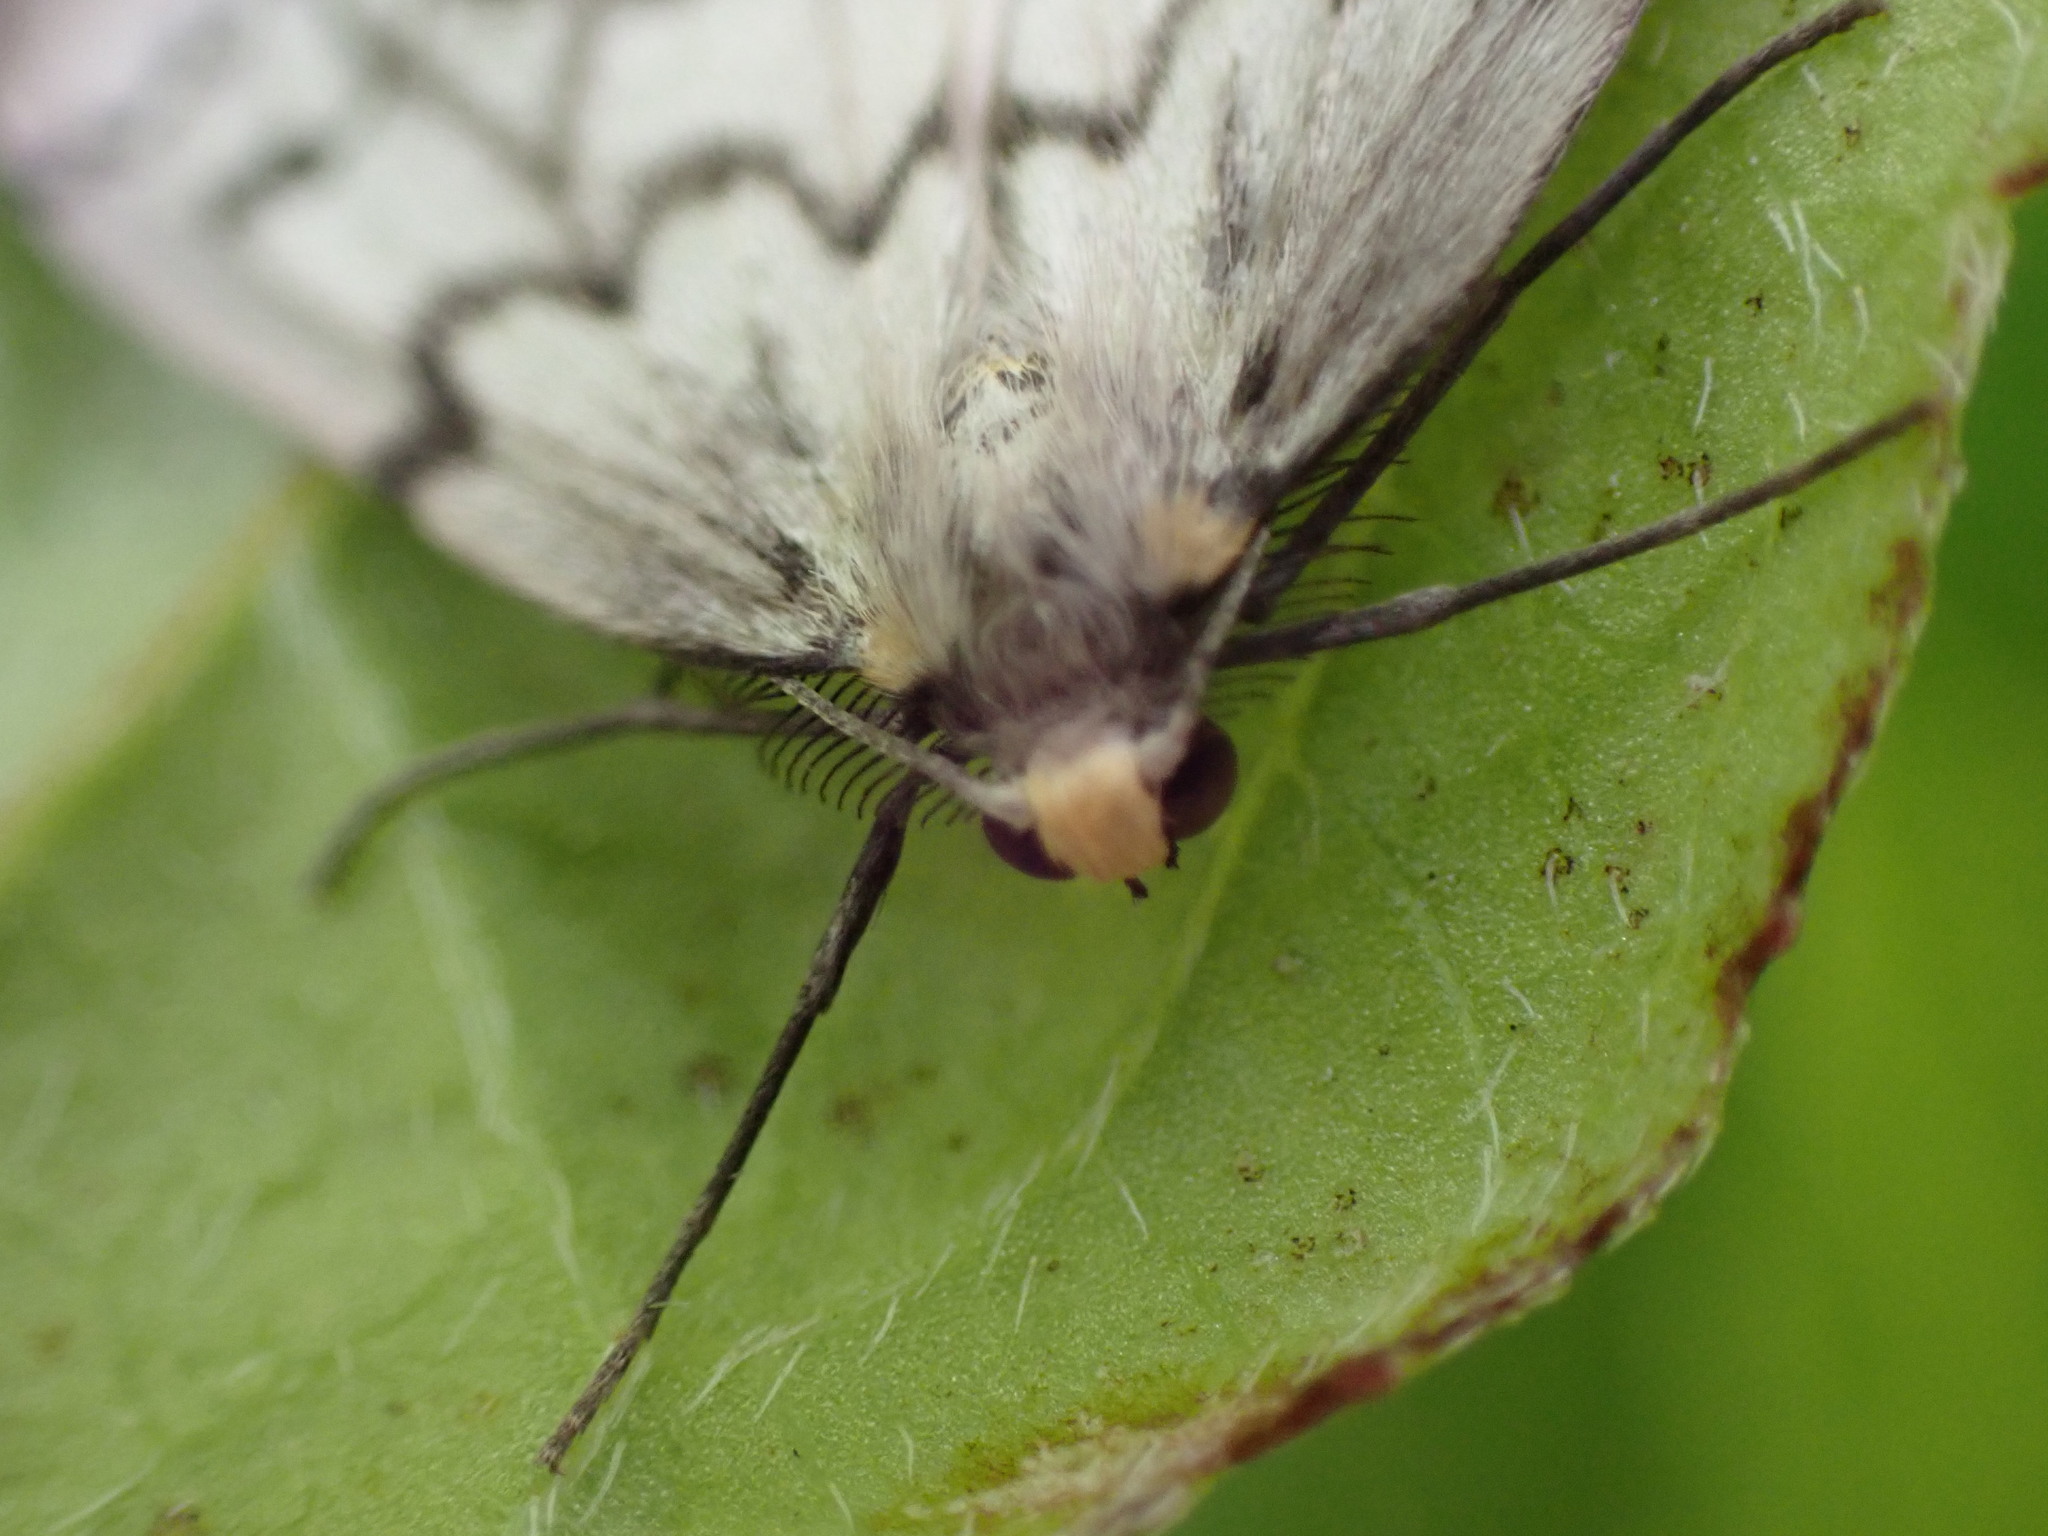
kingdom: Animalia
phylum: Arthropoda
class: Insecta
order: Lepidoptera
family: Geometridae
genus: Nepytia
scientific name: Nepytia phantasmaria
